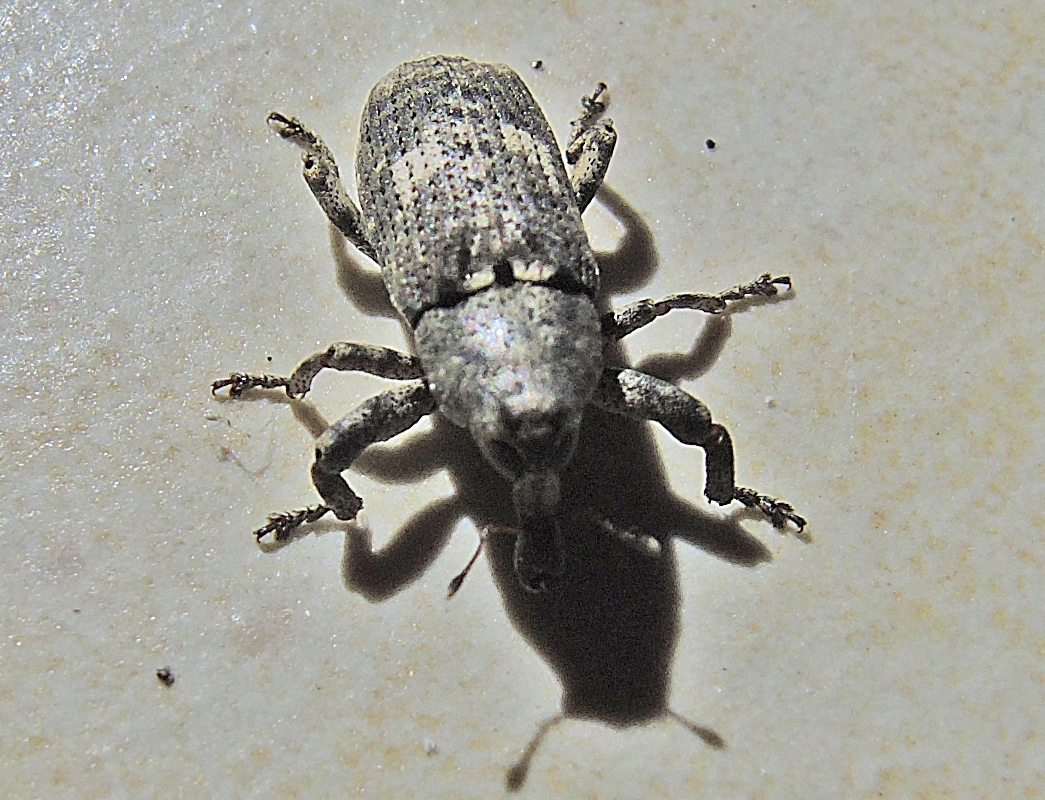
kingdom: Animalia
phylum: Arthropoda
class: Insecta
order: Coleoptera
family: Curculionidae
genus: Gasterocercus
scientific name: Gasterocercus depressirostris
